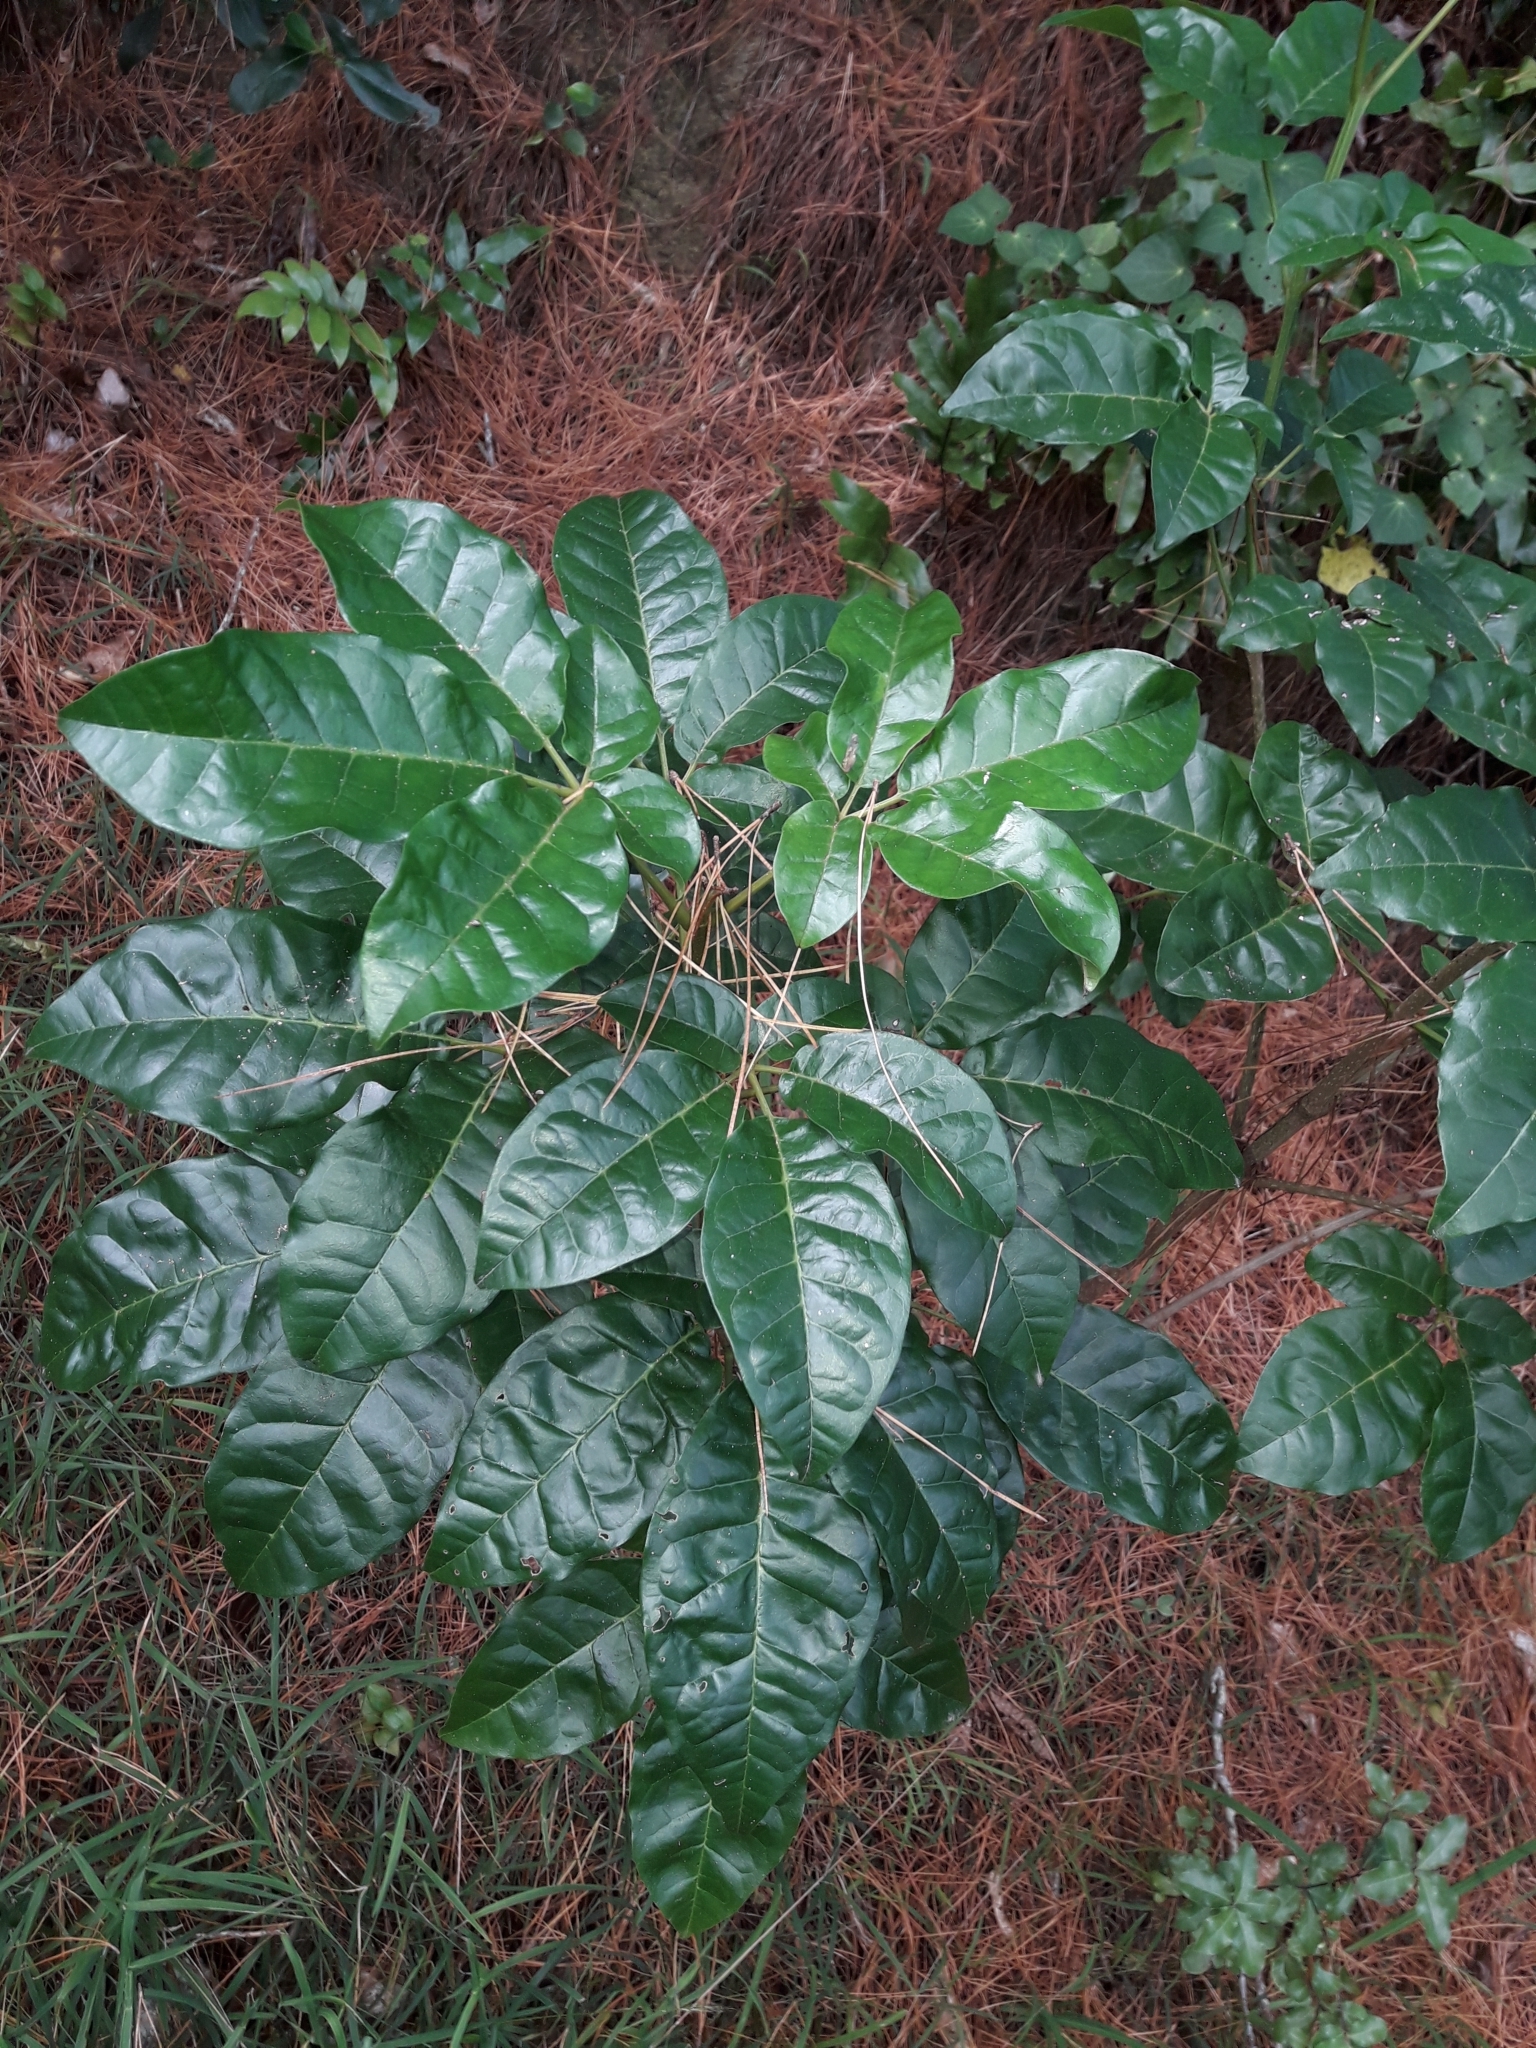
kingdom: Plantae
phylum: Tracheophyta
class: Magnoliopsida
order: Lamiales
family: Lamiaceae
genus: Vitex
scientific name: Vitex lucens
